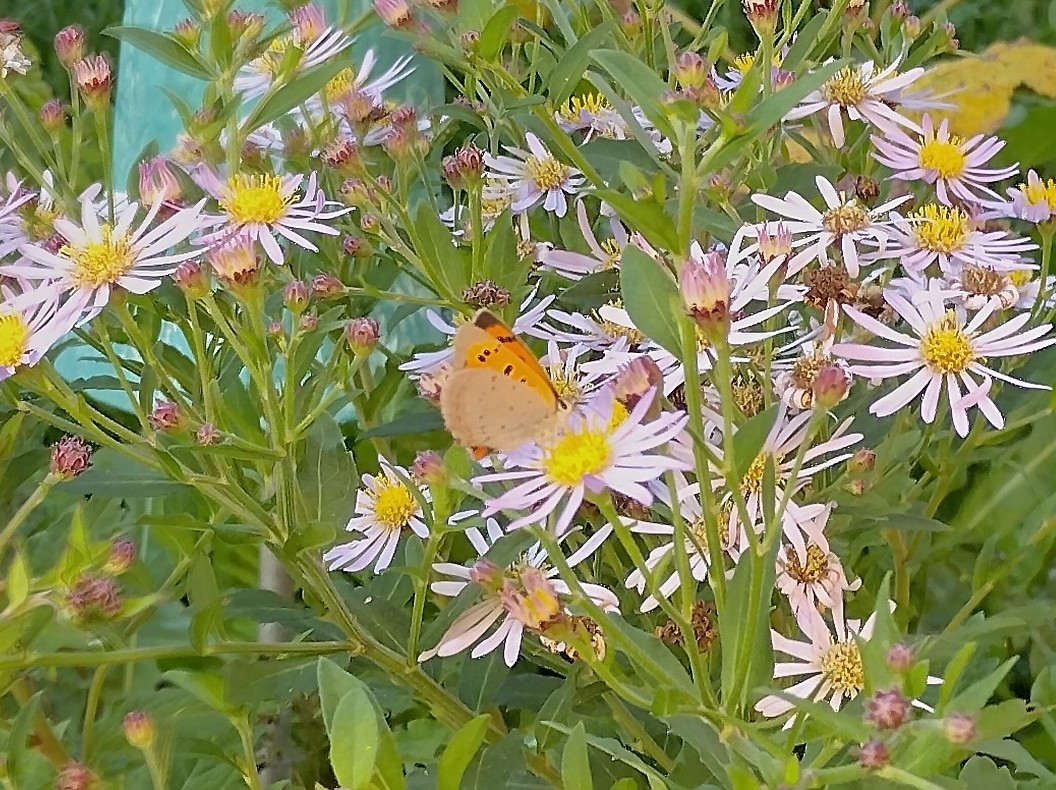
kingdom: Animalia
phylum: Arthropoda
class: Insecta
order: Lepidoptera
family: Lycaenidae
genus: Lycaena
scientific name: Lycaena phlaeas
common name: Small copper
